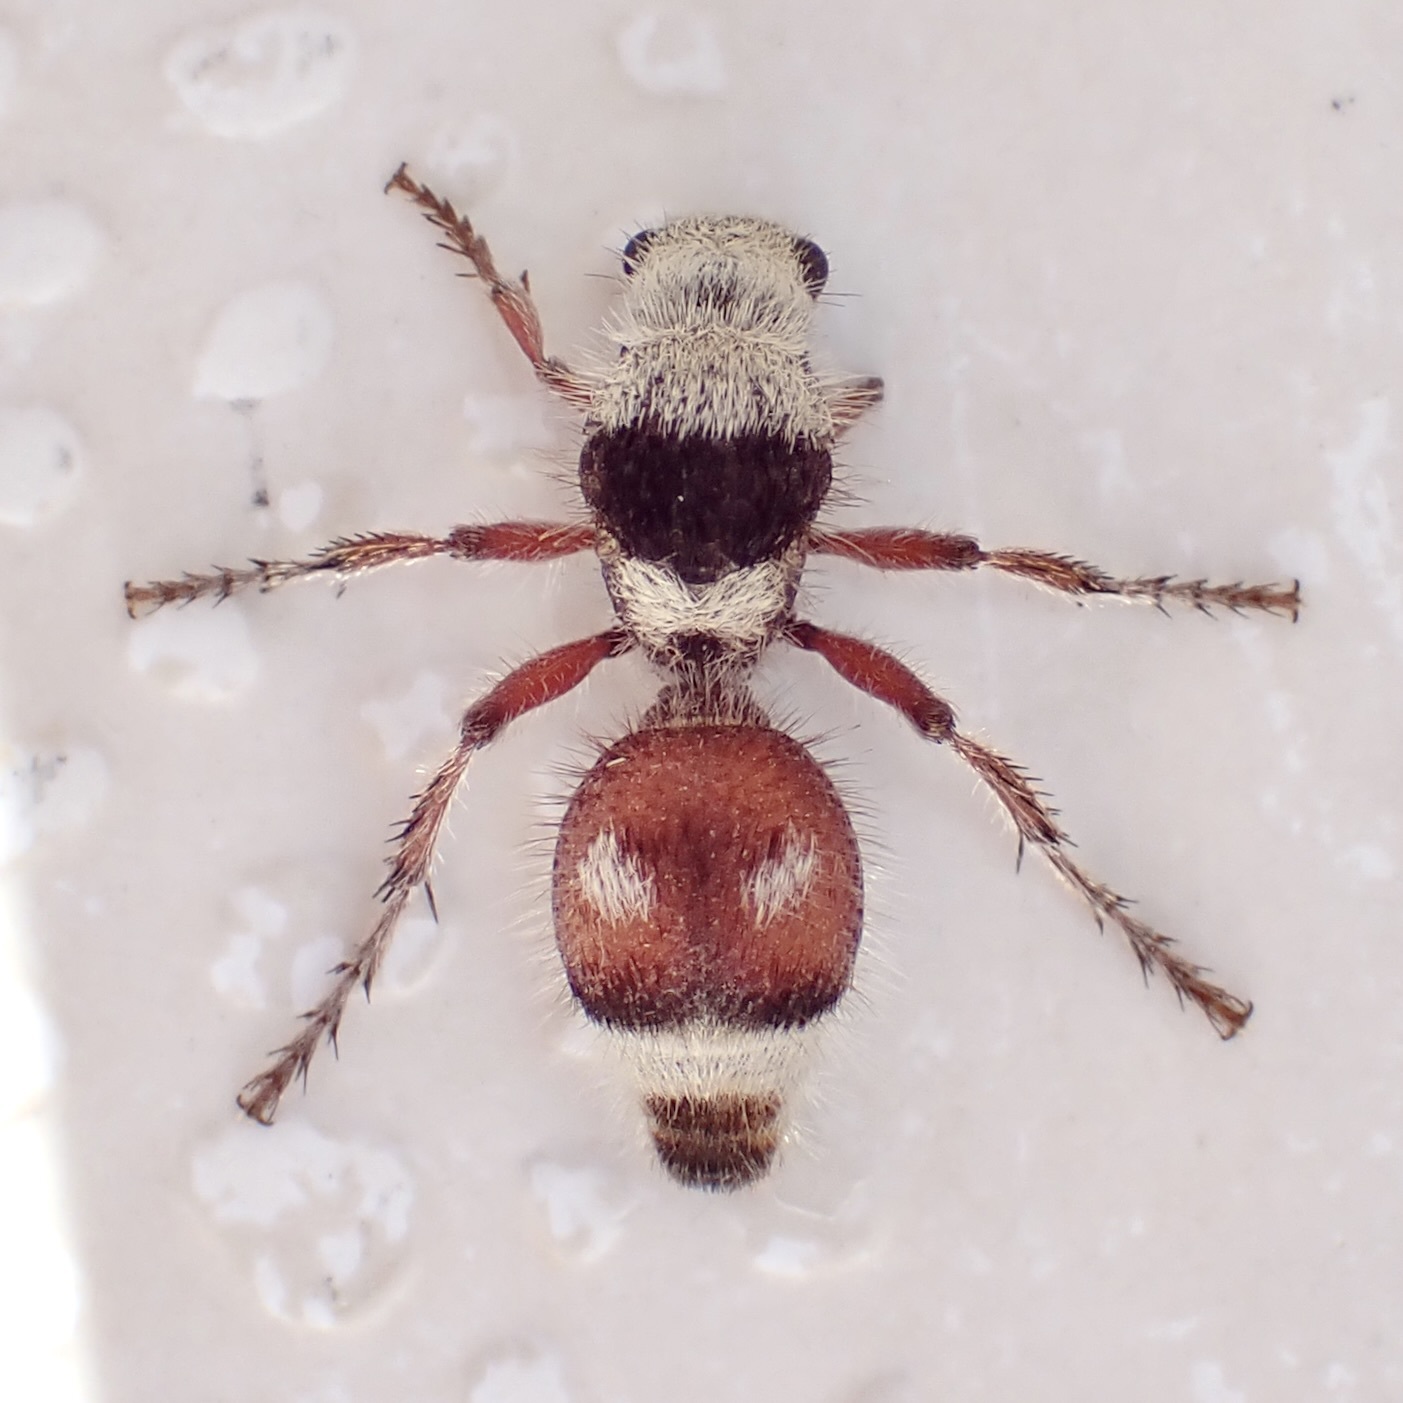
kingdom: Animalia
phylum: Arthropoda
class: Insecta
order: Hymenoptera
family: Mutillidae
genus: Dasymutilla
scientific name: Dasymutilla
